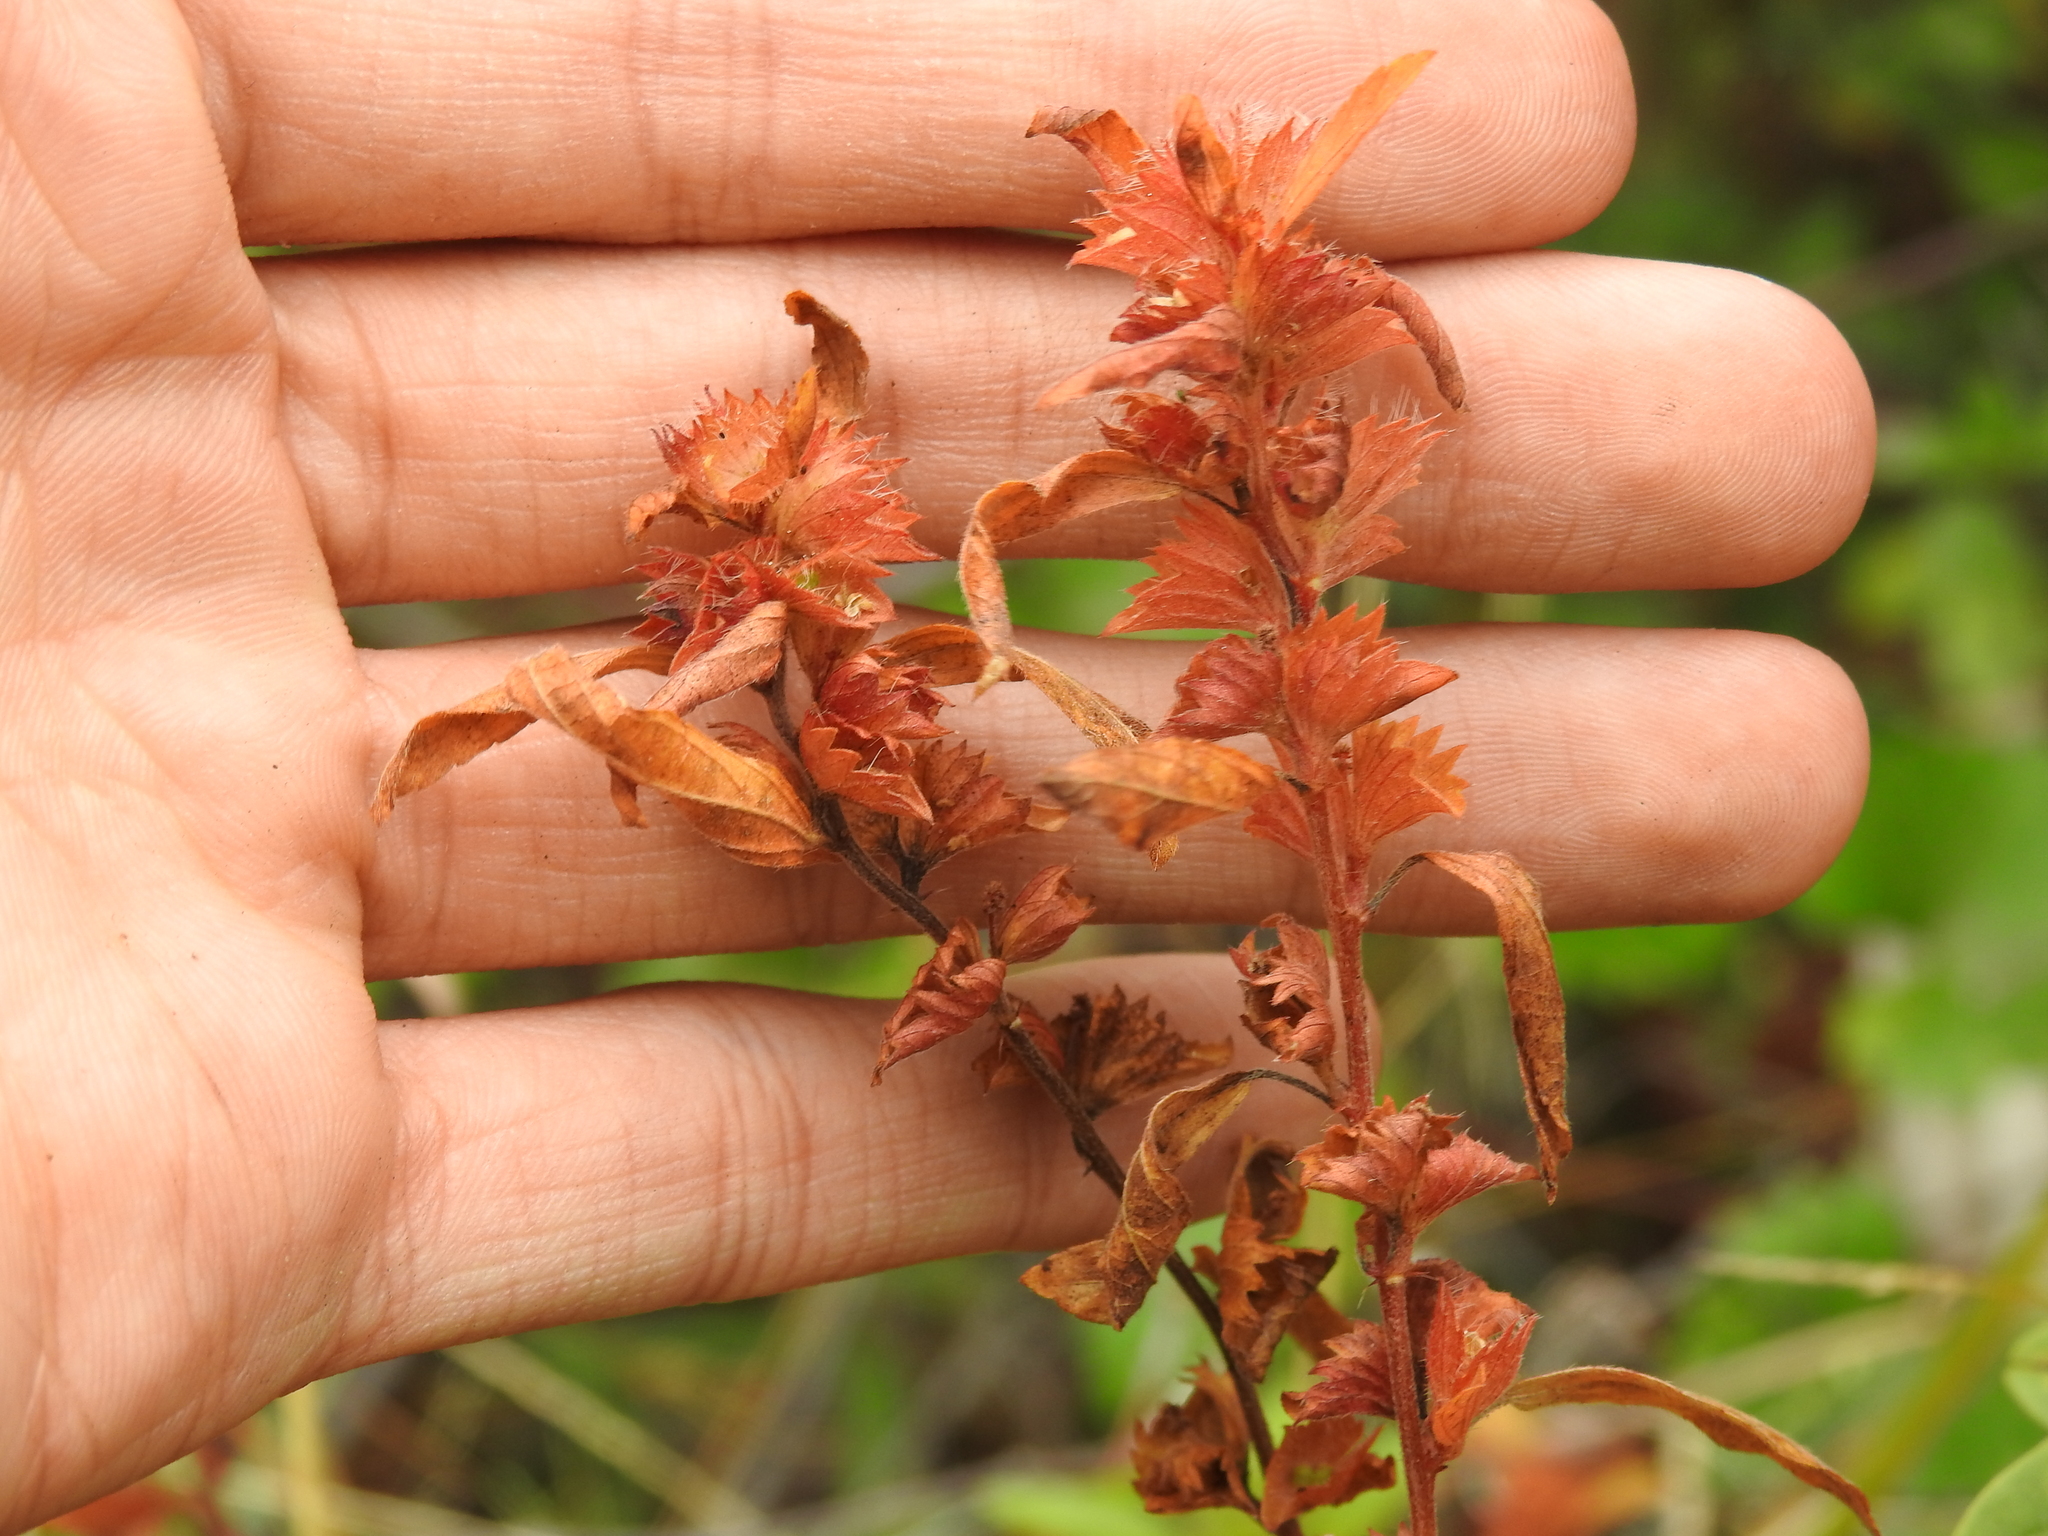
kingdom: Plantae
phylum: Tracheophyta
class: Magnoliopsida
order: Malpighiales
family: Euphorbiaceae
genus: Acalypha
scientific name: Acalypha gracilens
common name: Slender three-seeded mercury
